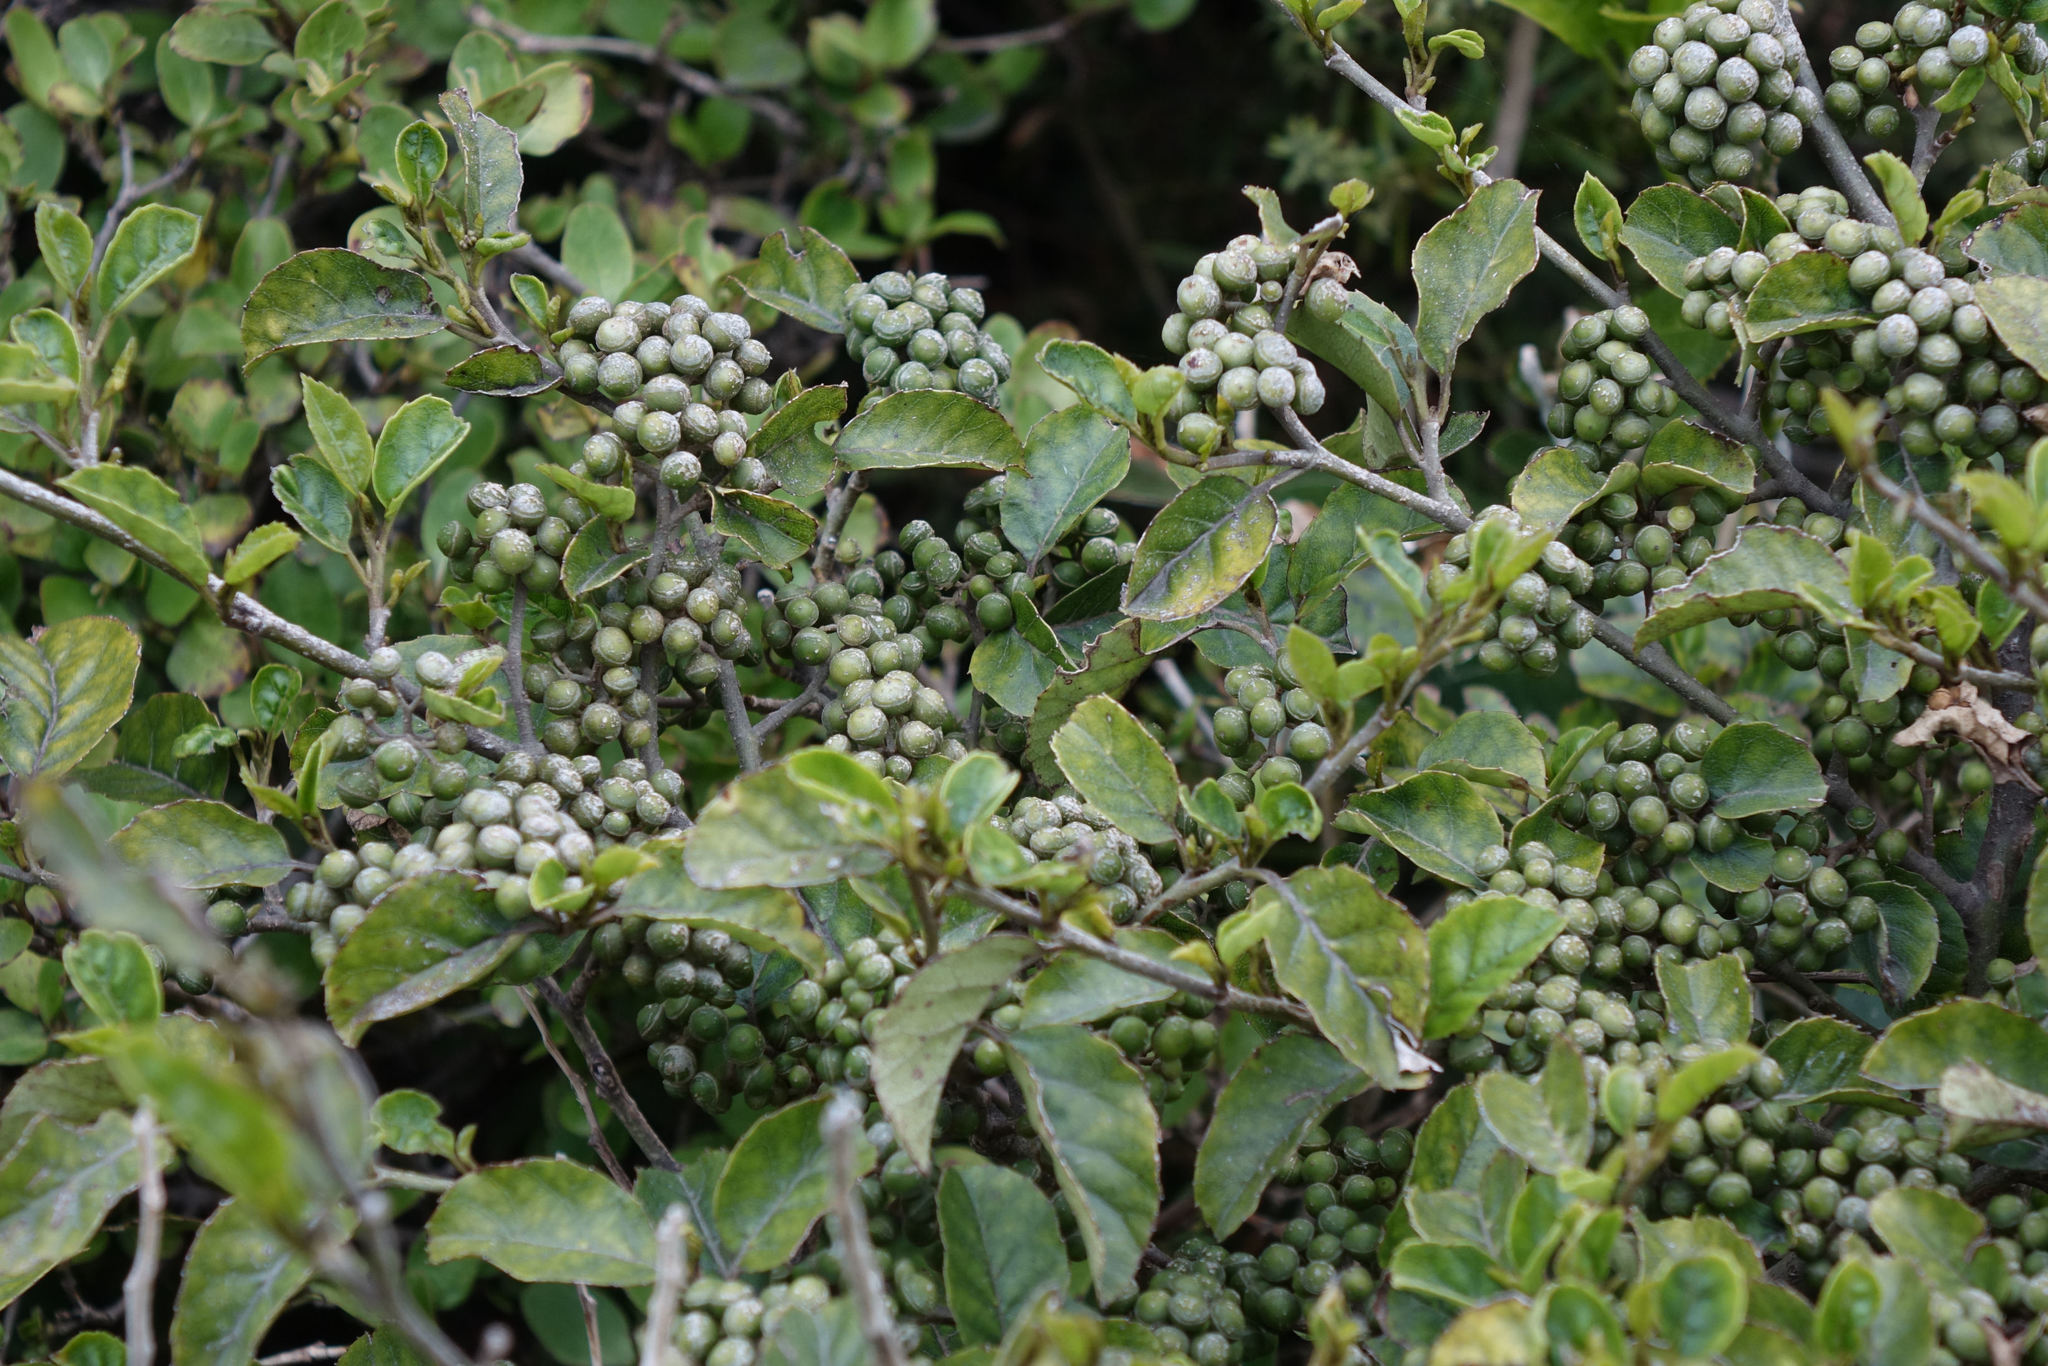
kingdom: Plantae
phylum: Tracheophyta
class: Magnoliopsida
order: Asterales
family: Rousseaceae
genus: Carpodetus
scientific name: Carpodetus serratus
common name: White mapau
